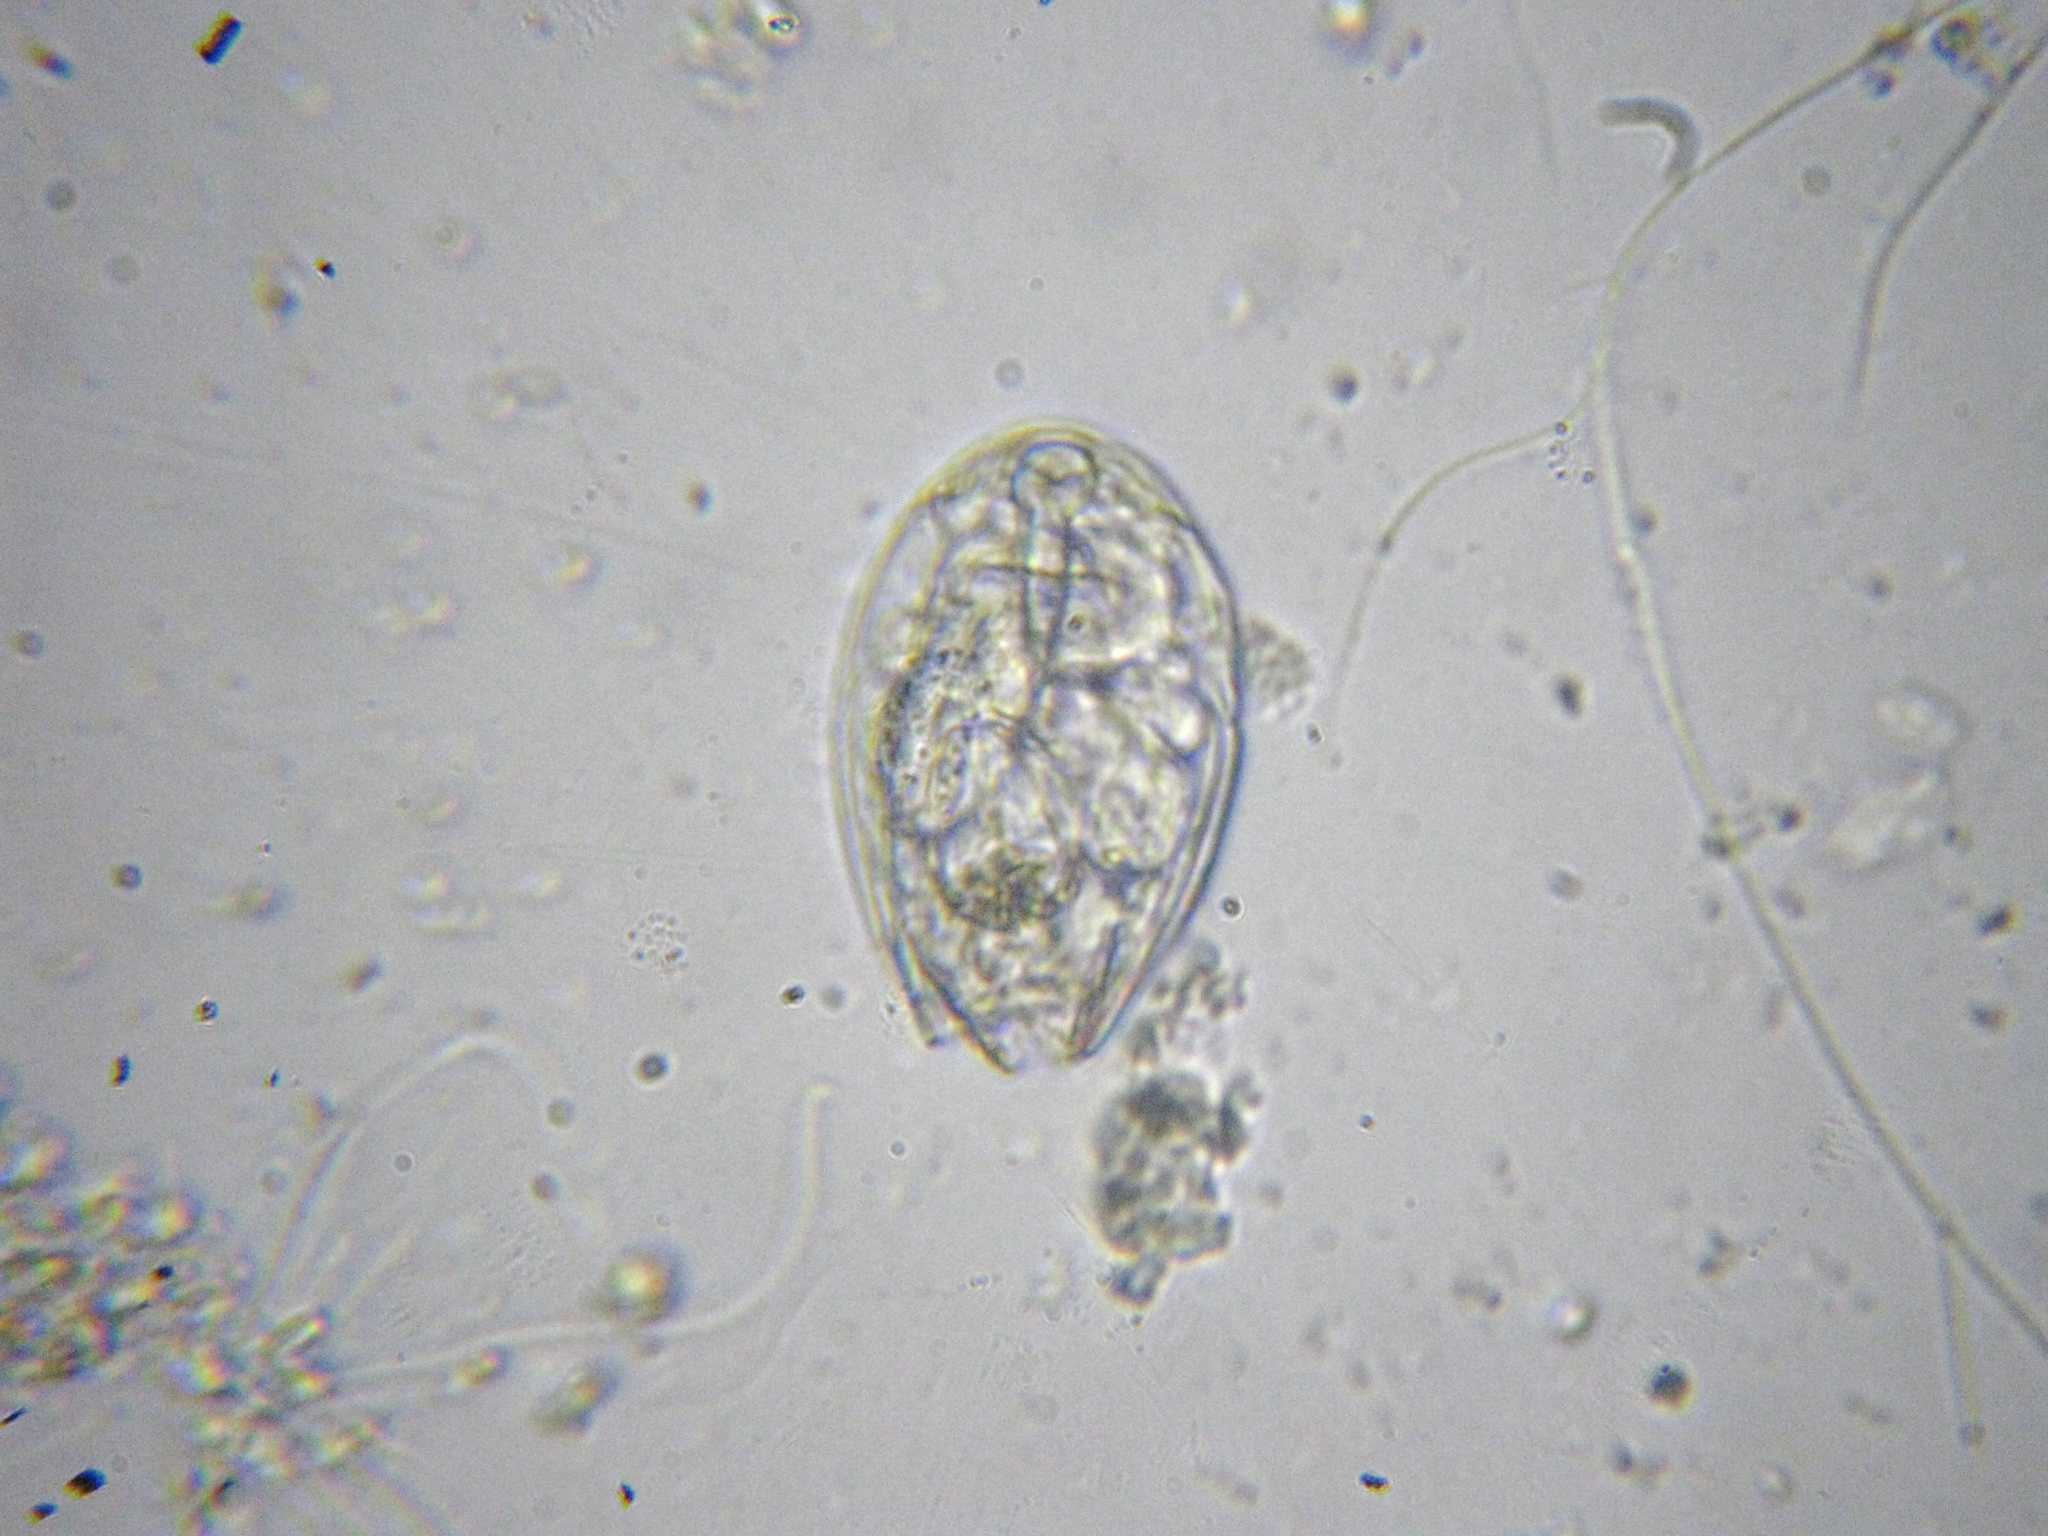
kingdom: Animalia
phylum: Rotifera
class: Eurotatoria
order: Ploima
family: Lecanidae
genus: Lecane
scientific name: Lecane
